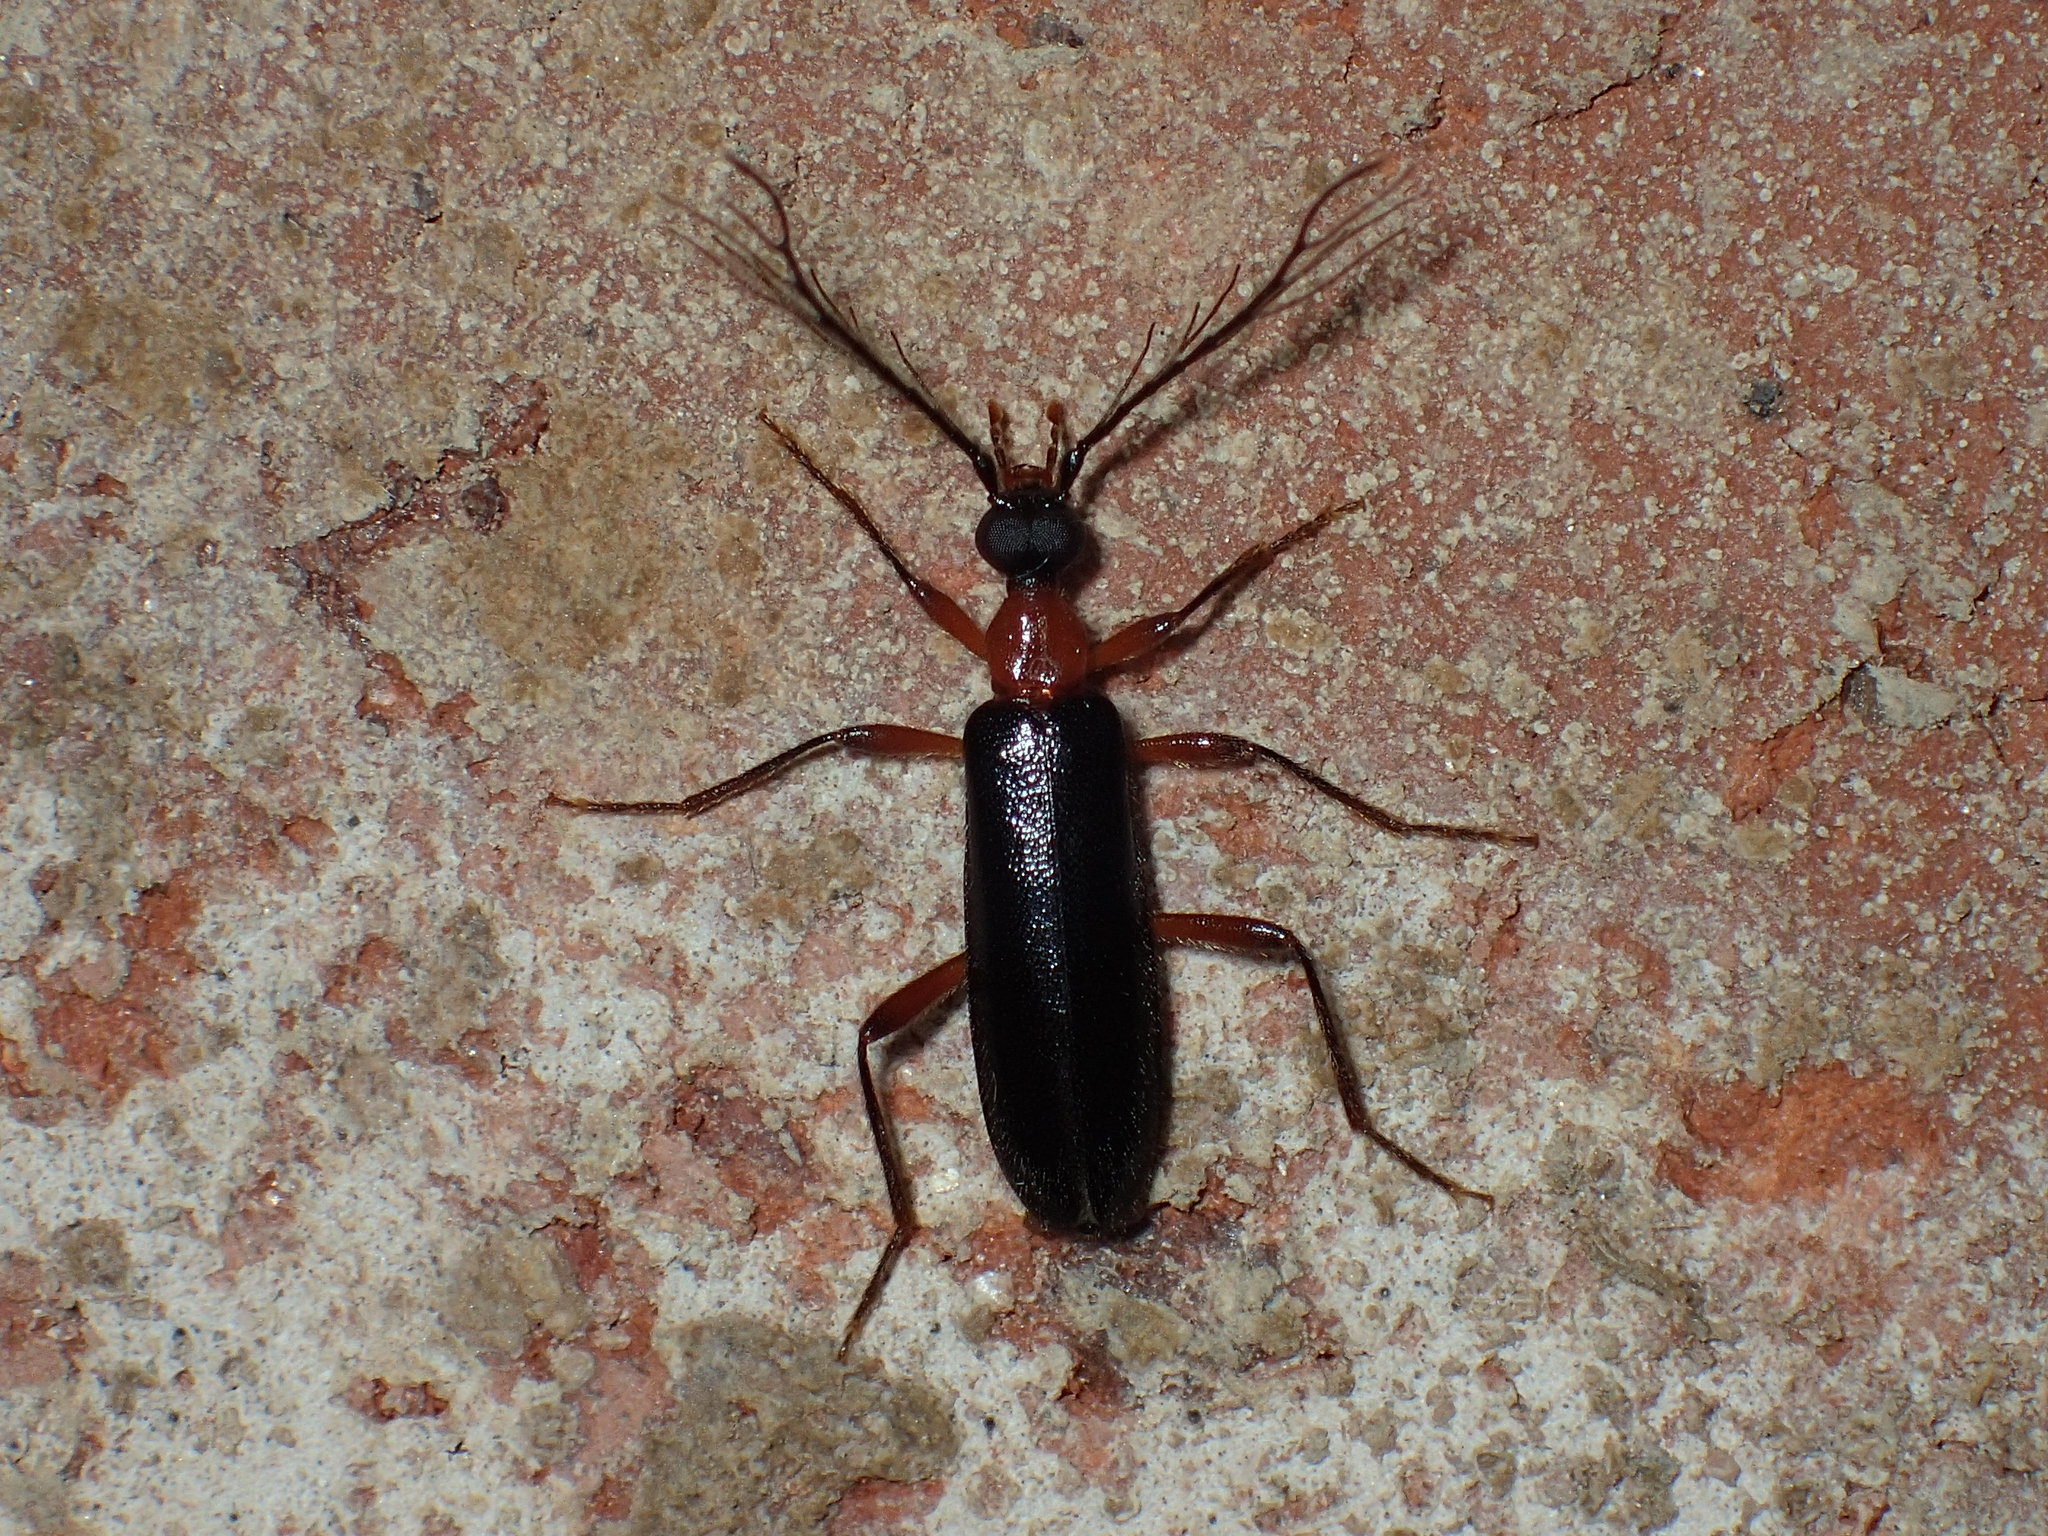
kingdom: Animalia
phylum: Arthropoda
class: Insecta
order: Coleoptera
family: Pyrochroidae
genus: Dendroides
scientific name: Dendroides canadensis
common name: Canada fire-colored beetle
